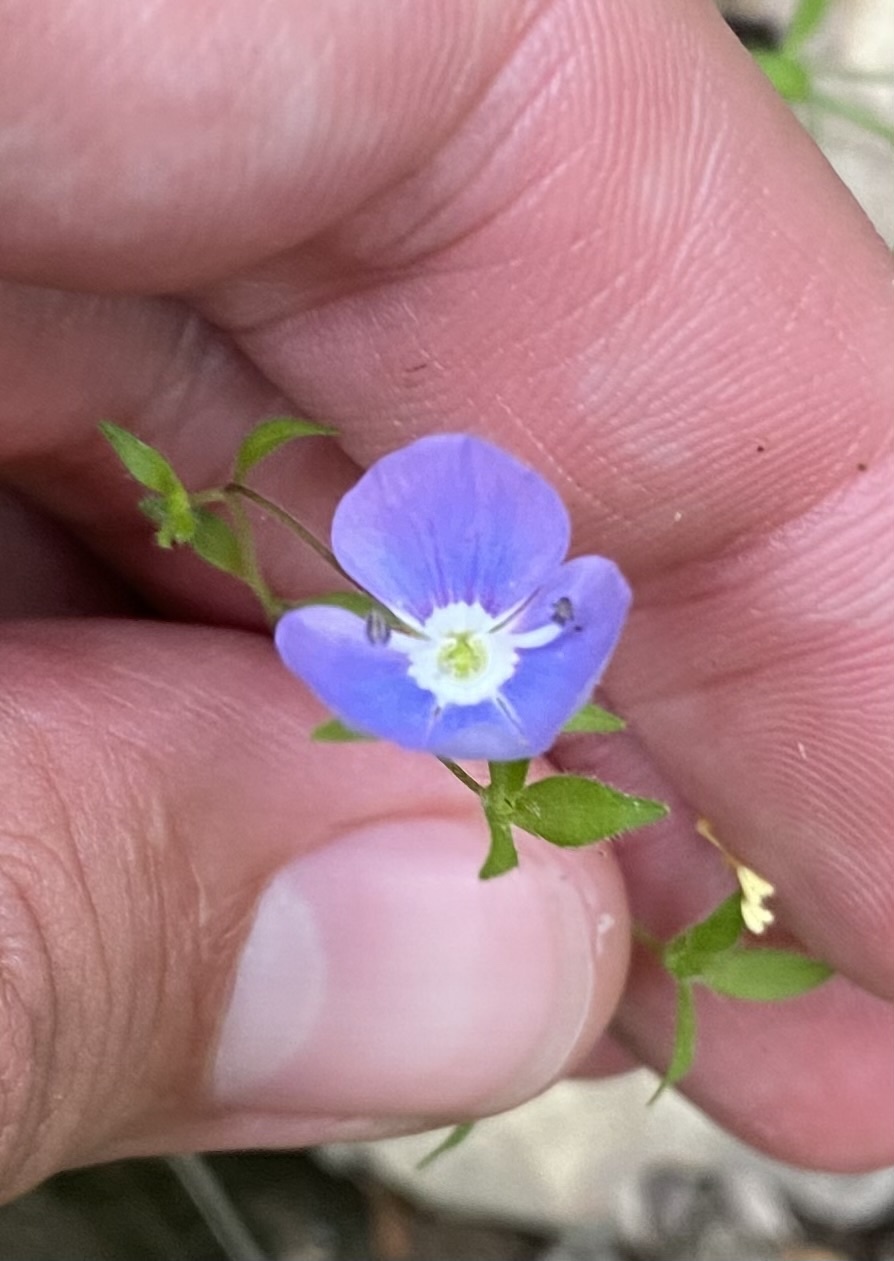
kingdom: Plantae
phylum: Tracheophyta
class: Magnoliopsida
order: Lamiales
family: Plantaginaceae
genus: Veronica
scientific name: Veronica
